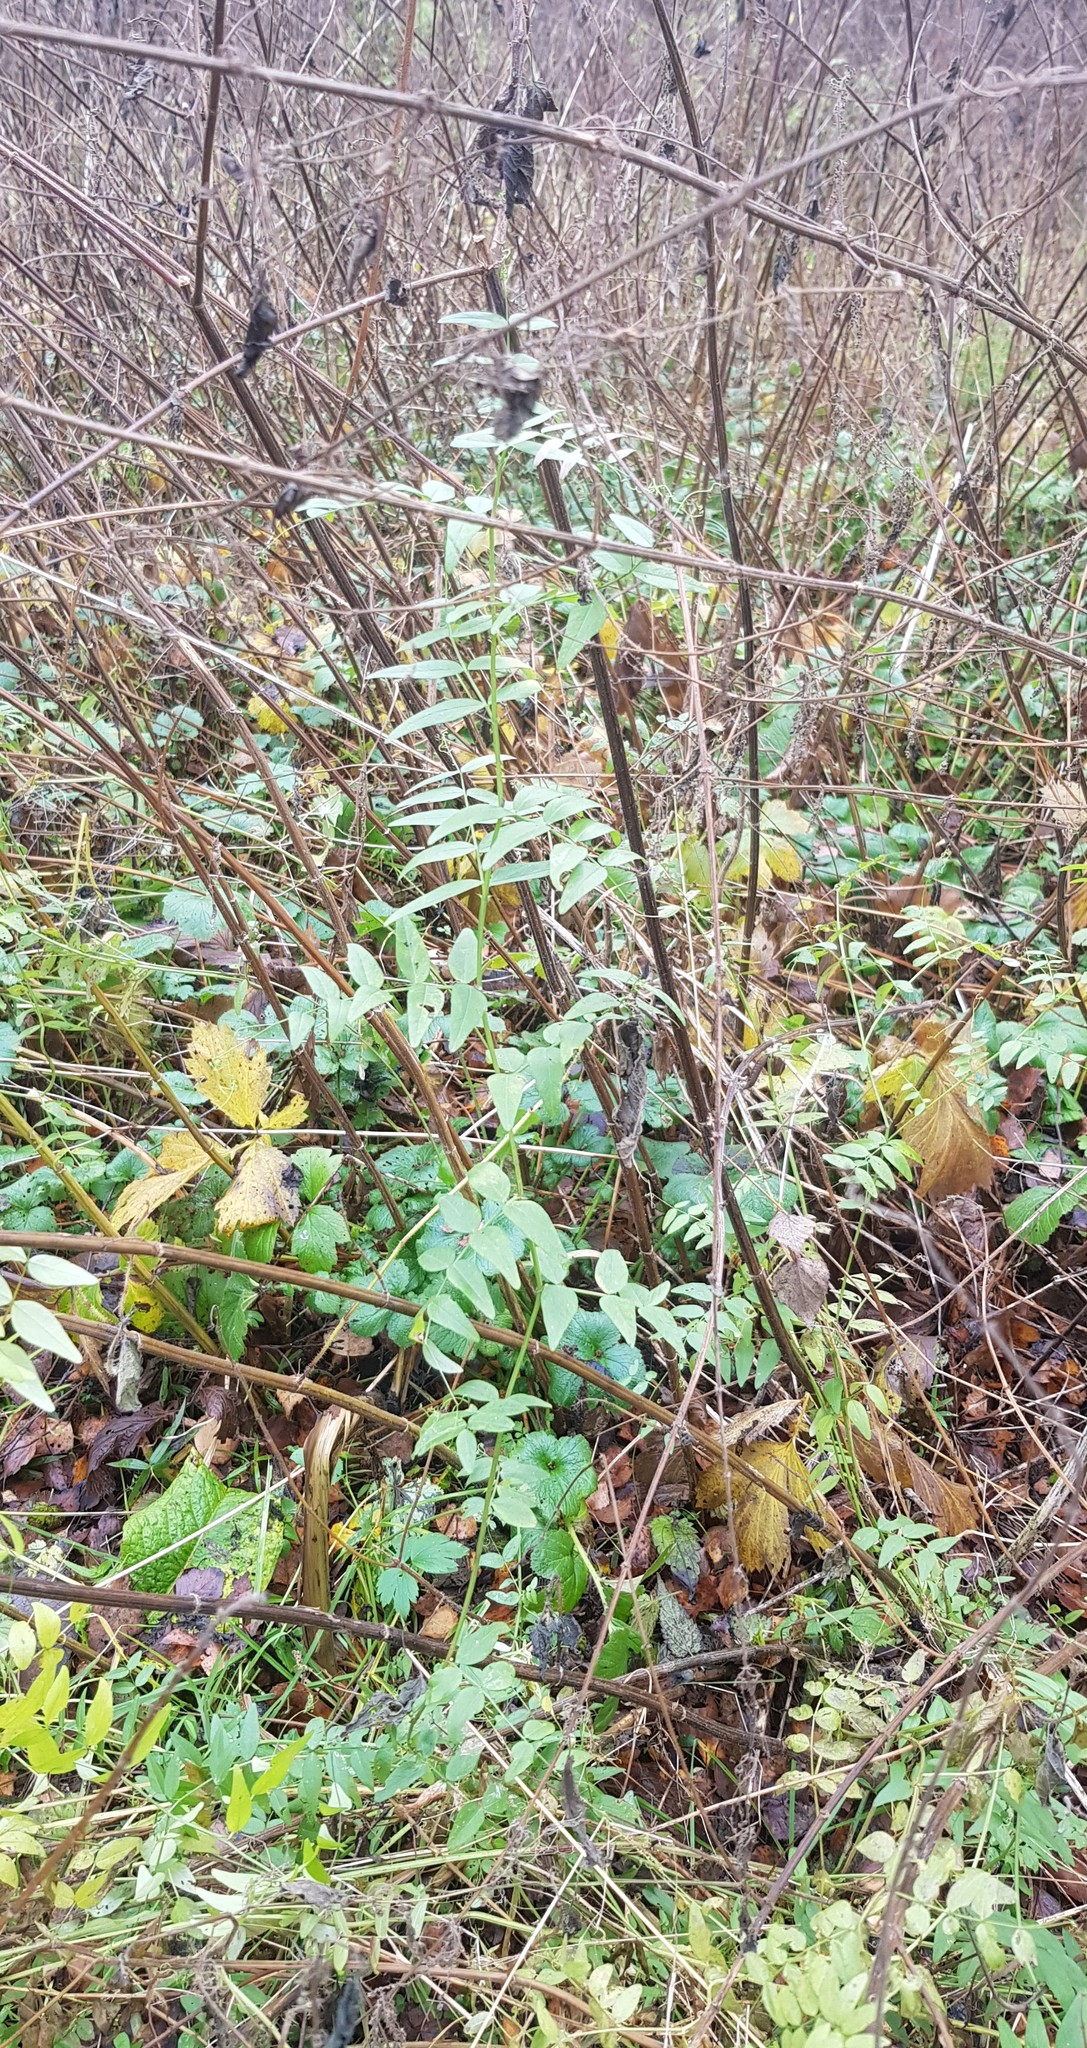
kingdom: Plantae
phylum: Tracheophyta
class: Magnoliopsida
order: Fabales
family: Fabaceae
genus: Vicia
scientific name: Vicia sepium
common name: Bush vetch
